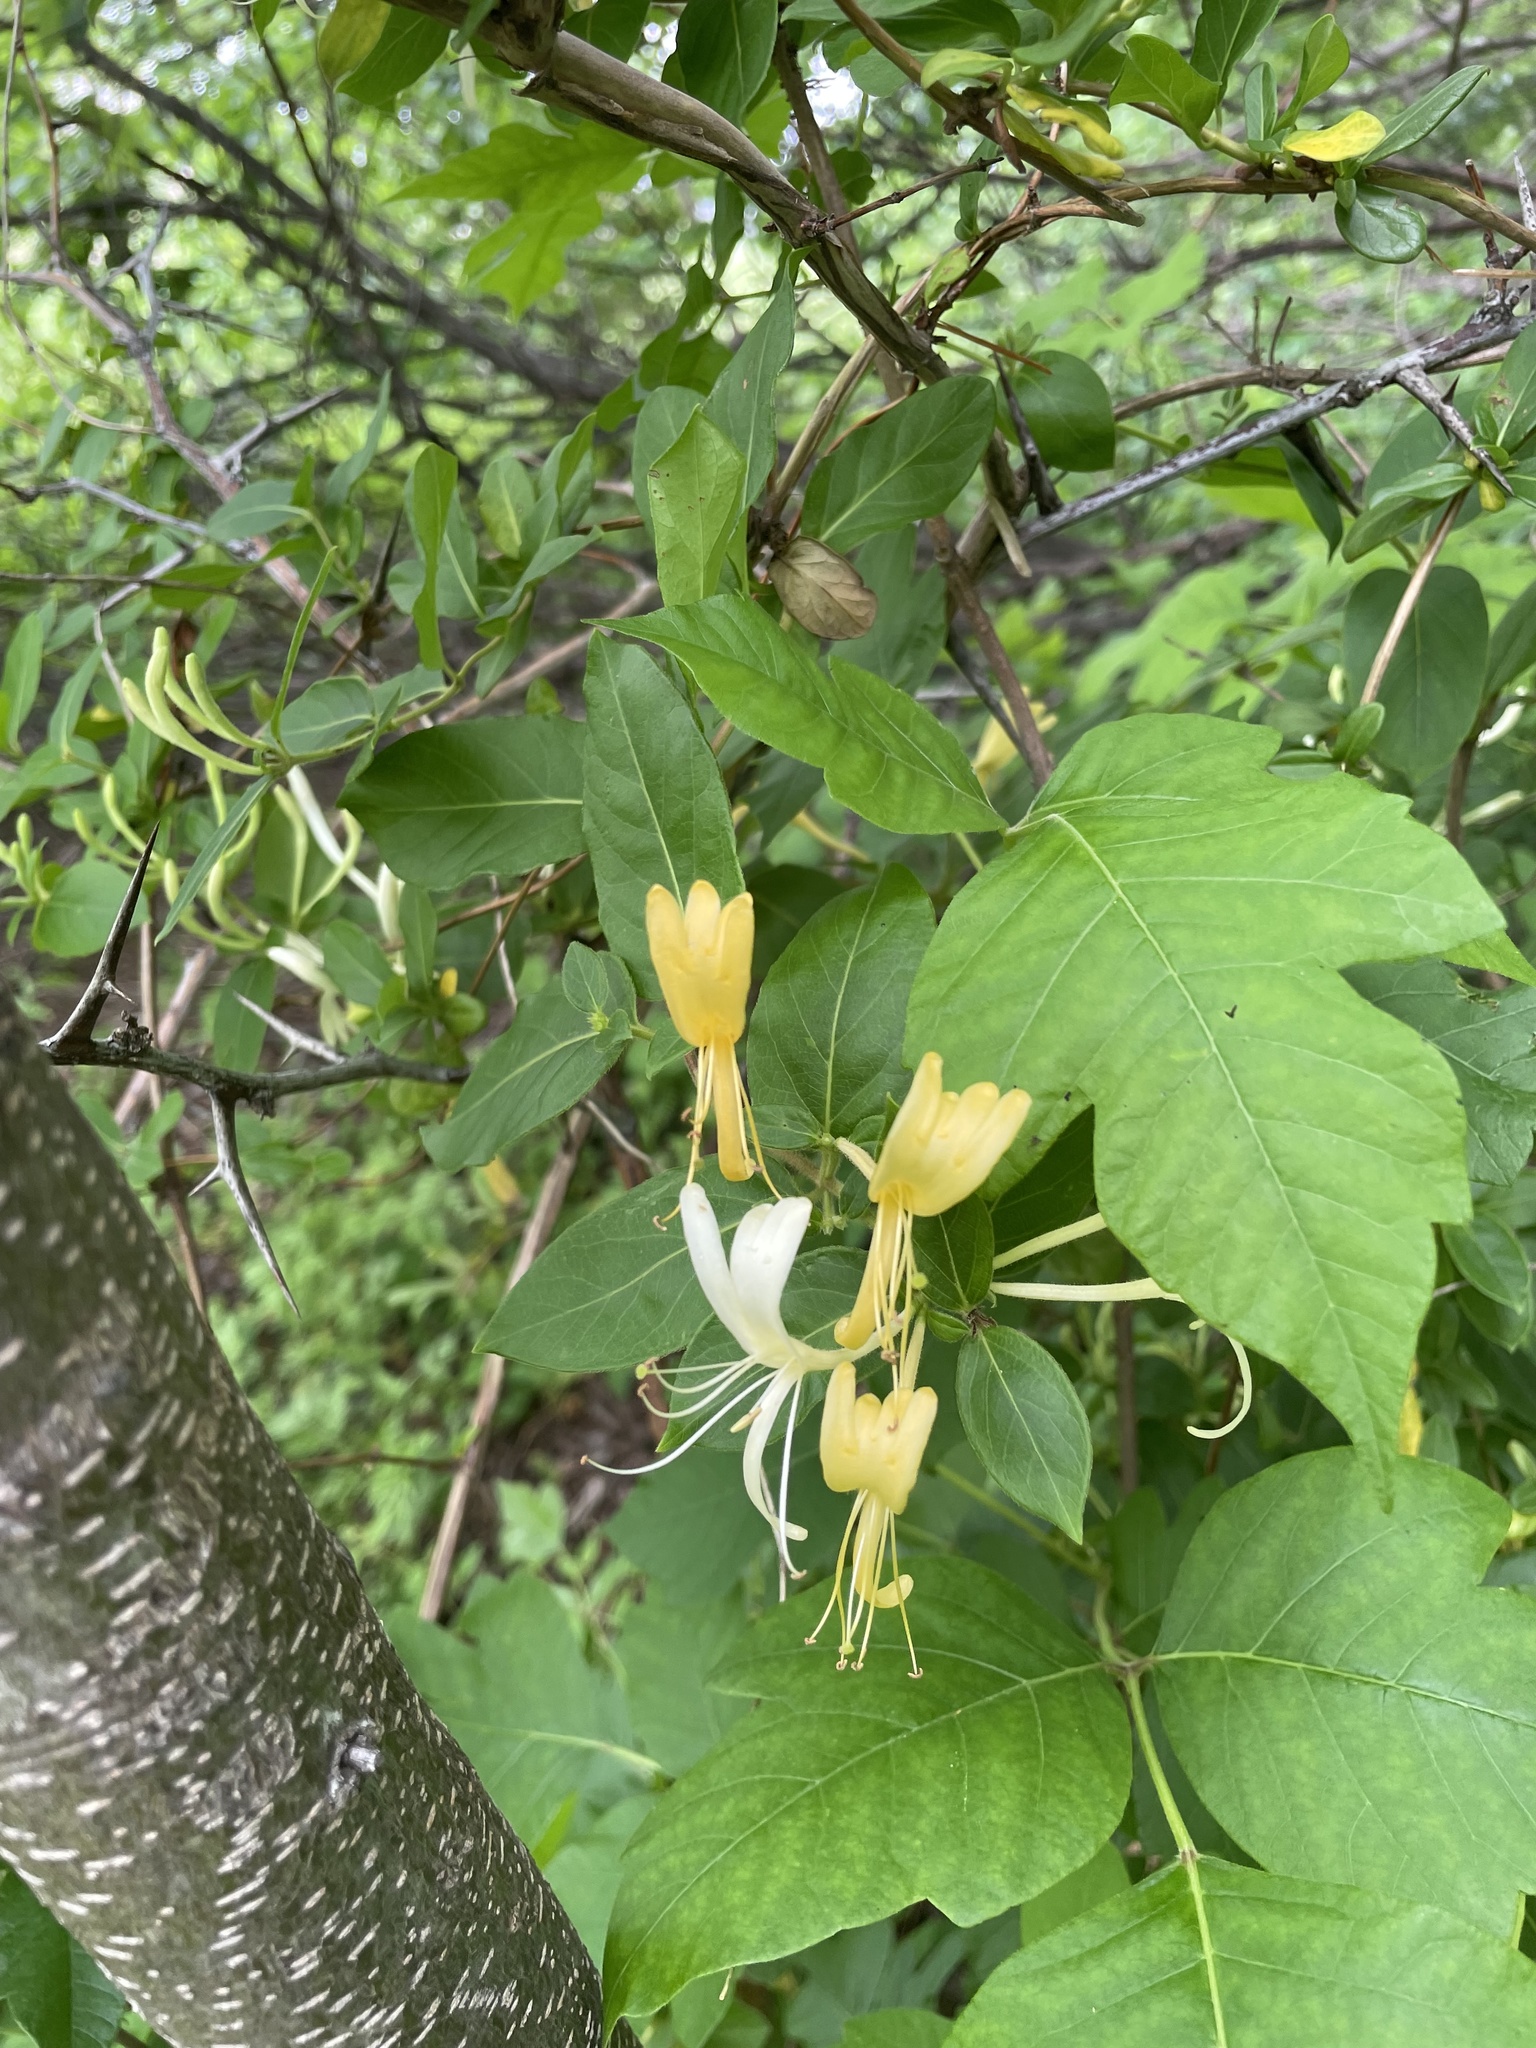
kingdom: Plantae
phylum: Tracheophyta
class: Magnoliopsida
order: Dipsacales
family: Caprifoliaceae
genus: Lonicera
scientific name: Lonicera japonica
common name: Japanese honeysuckle
